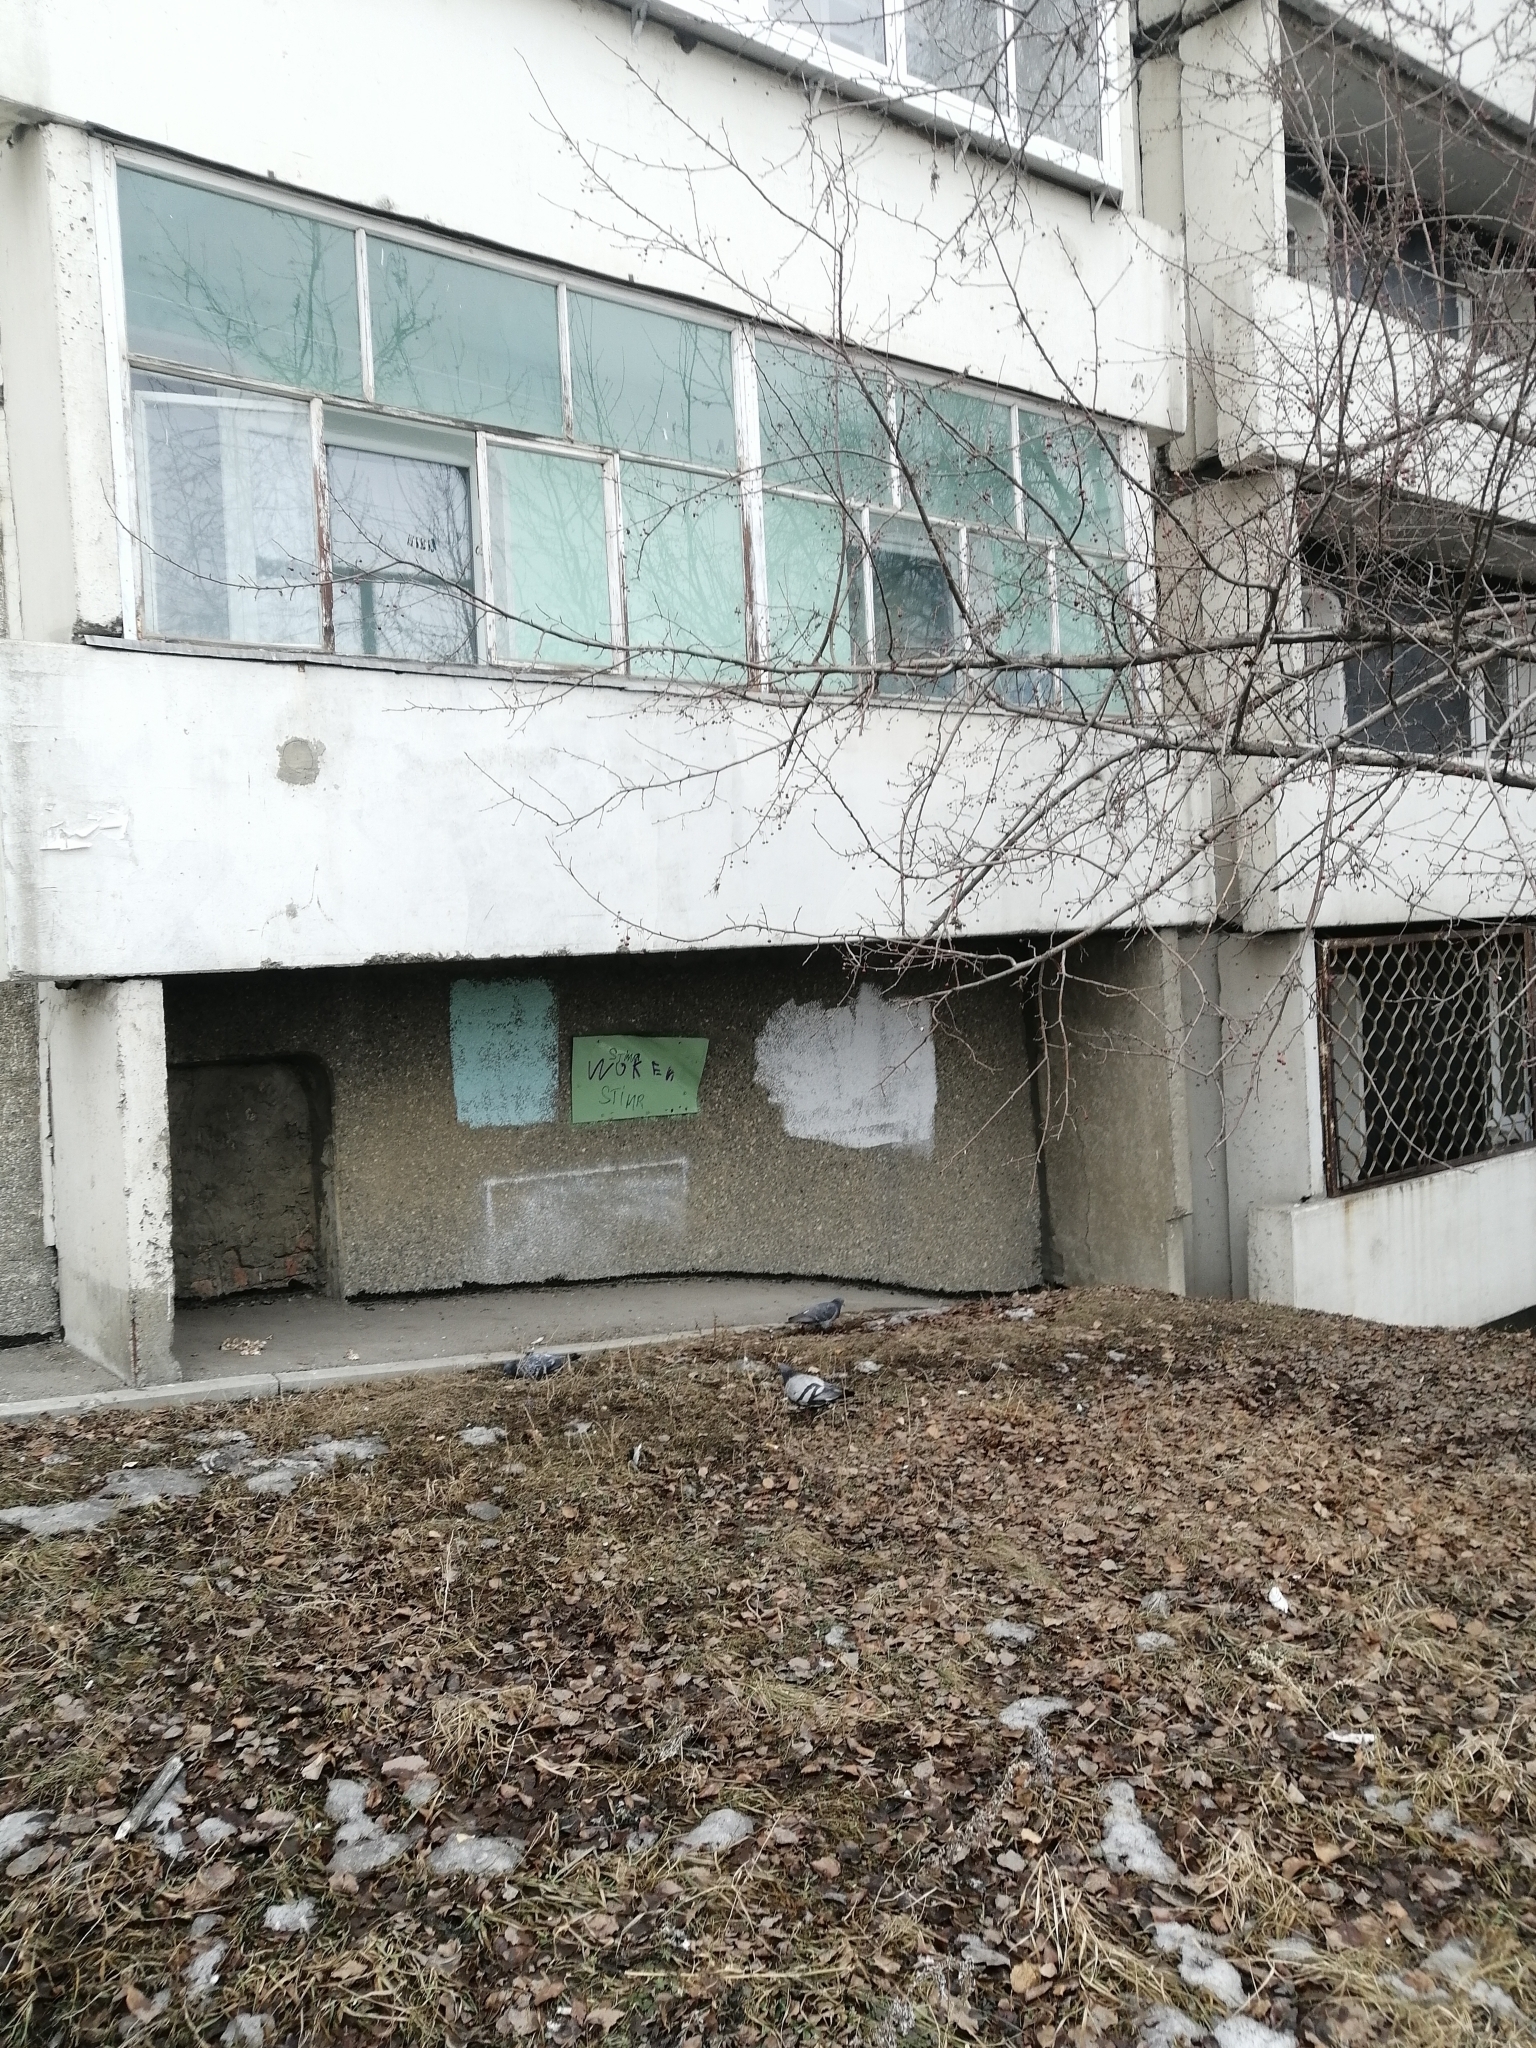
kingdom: Animalia
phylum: Chordata
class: Aves
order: Columbiformes
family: Columbidae
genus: Columba
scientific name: Columba livia
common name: Rock pigeon
